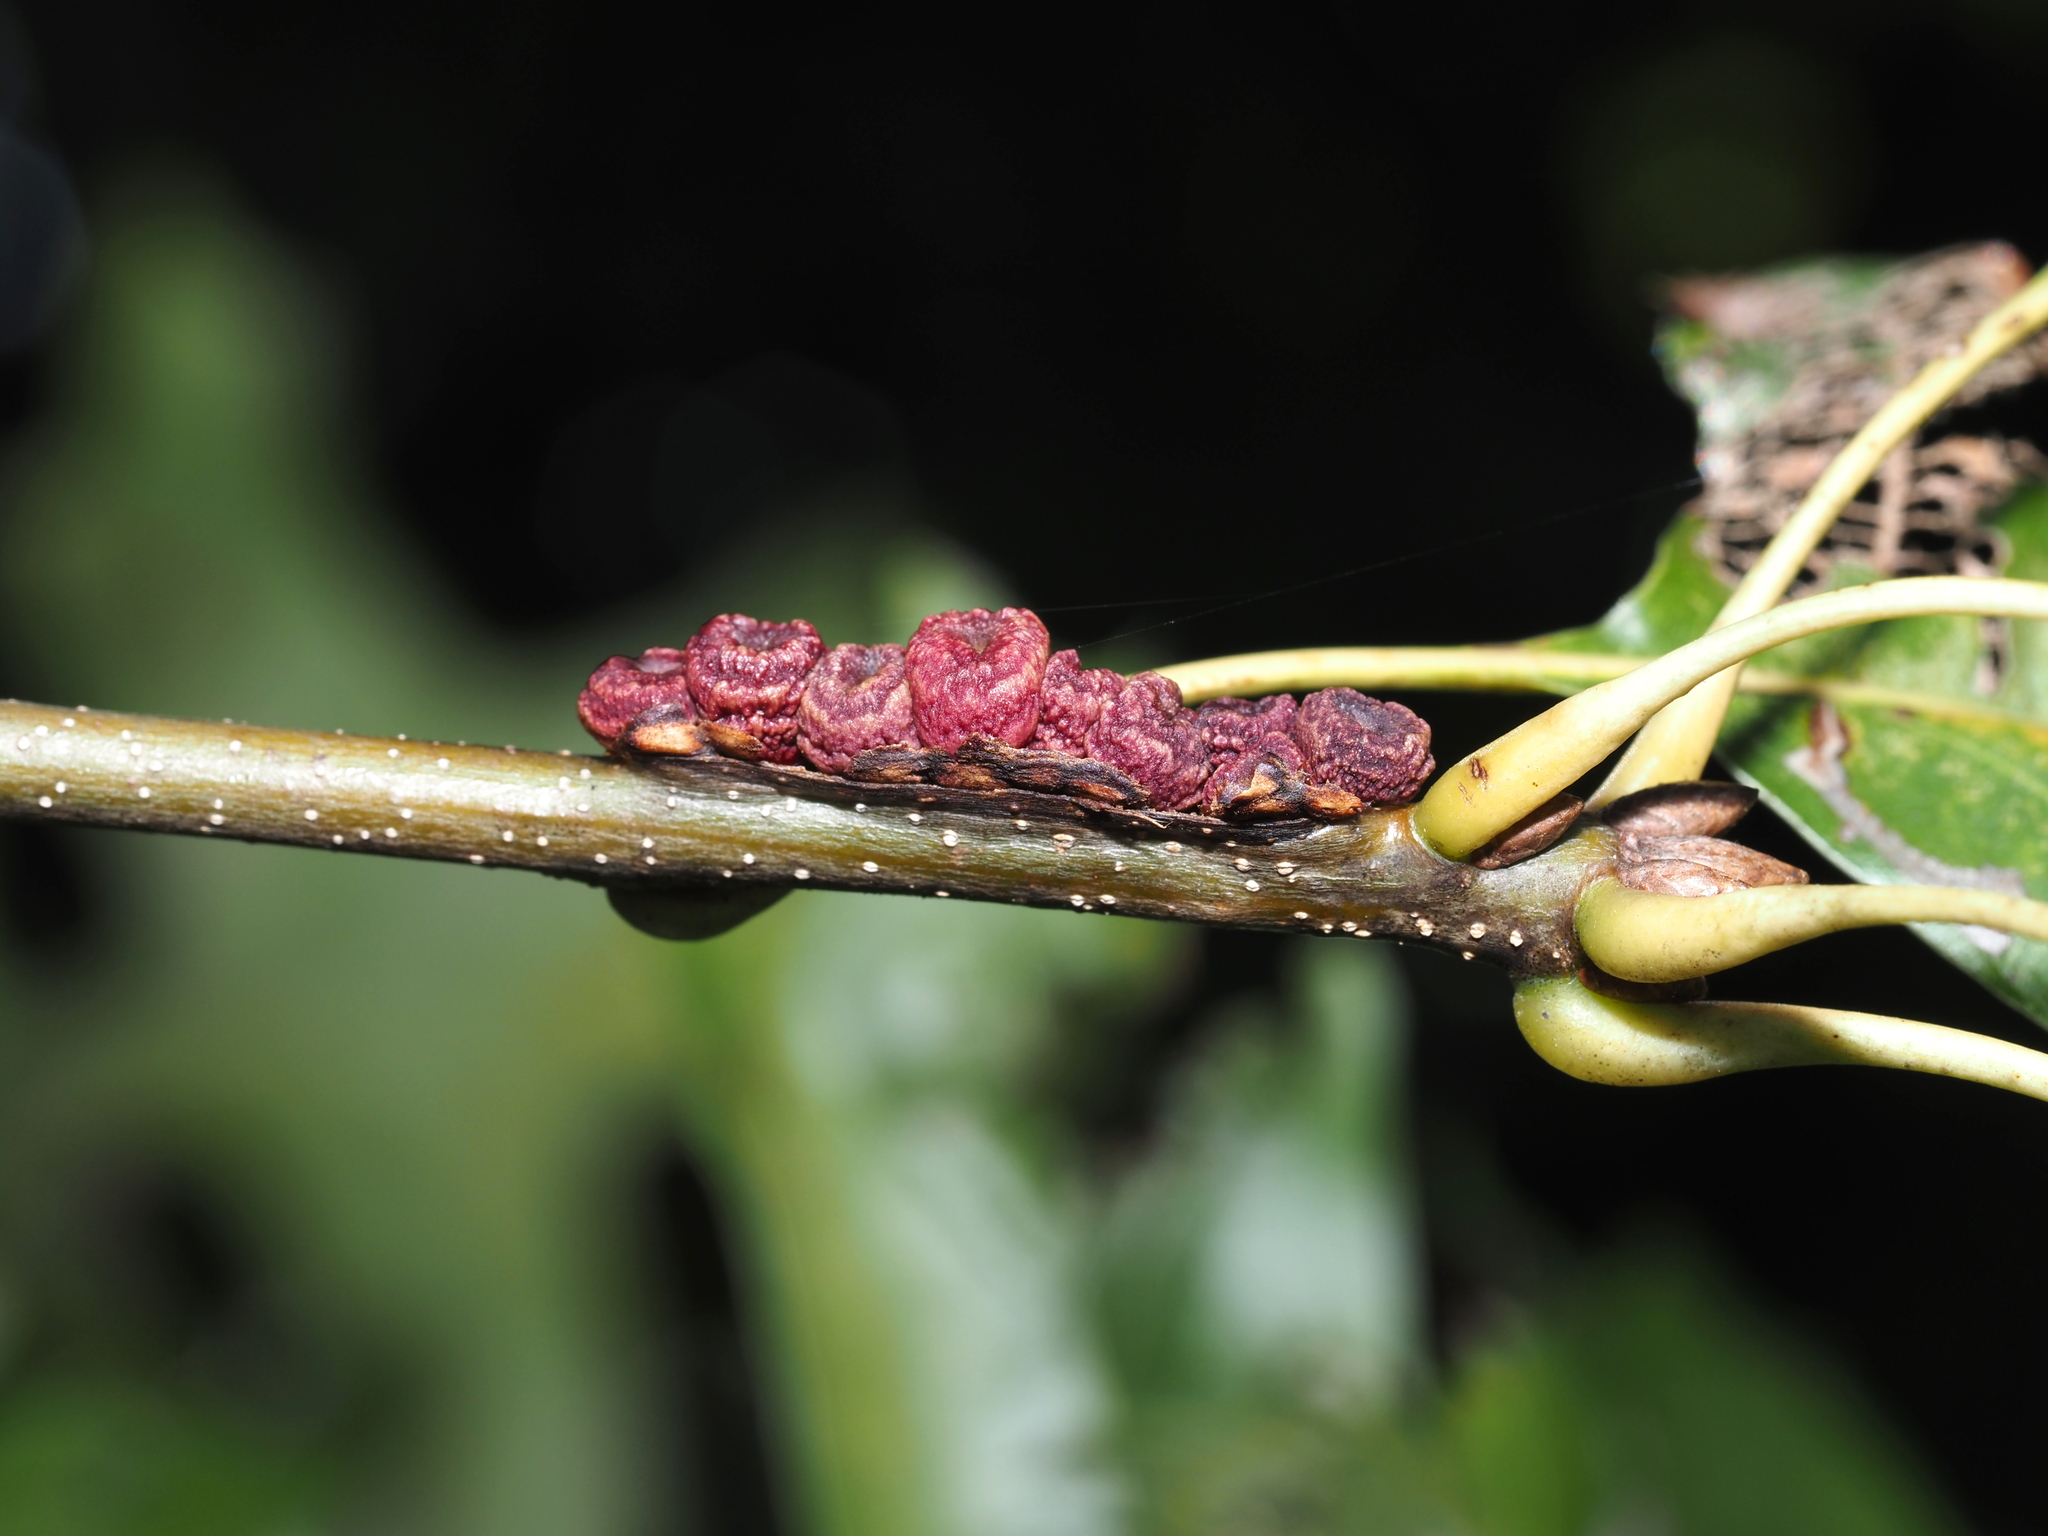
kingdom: Animalia
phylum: Arthropoda
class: Insecta
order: Hymenoptera
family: Cynipidae
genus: Kokkocynips
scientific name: Kokkocynips difficilis
